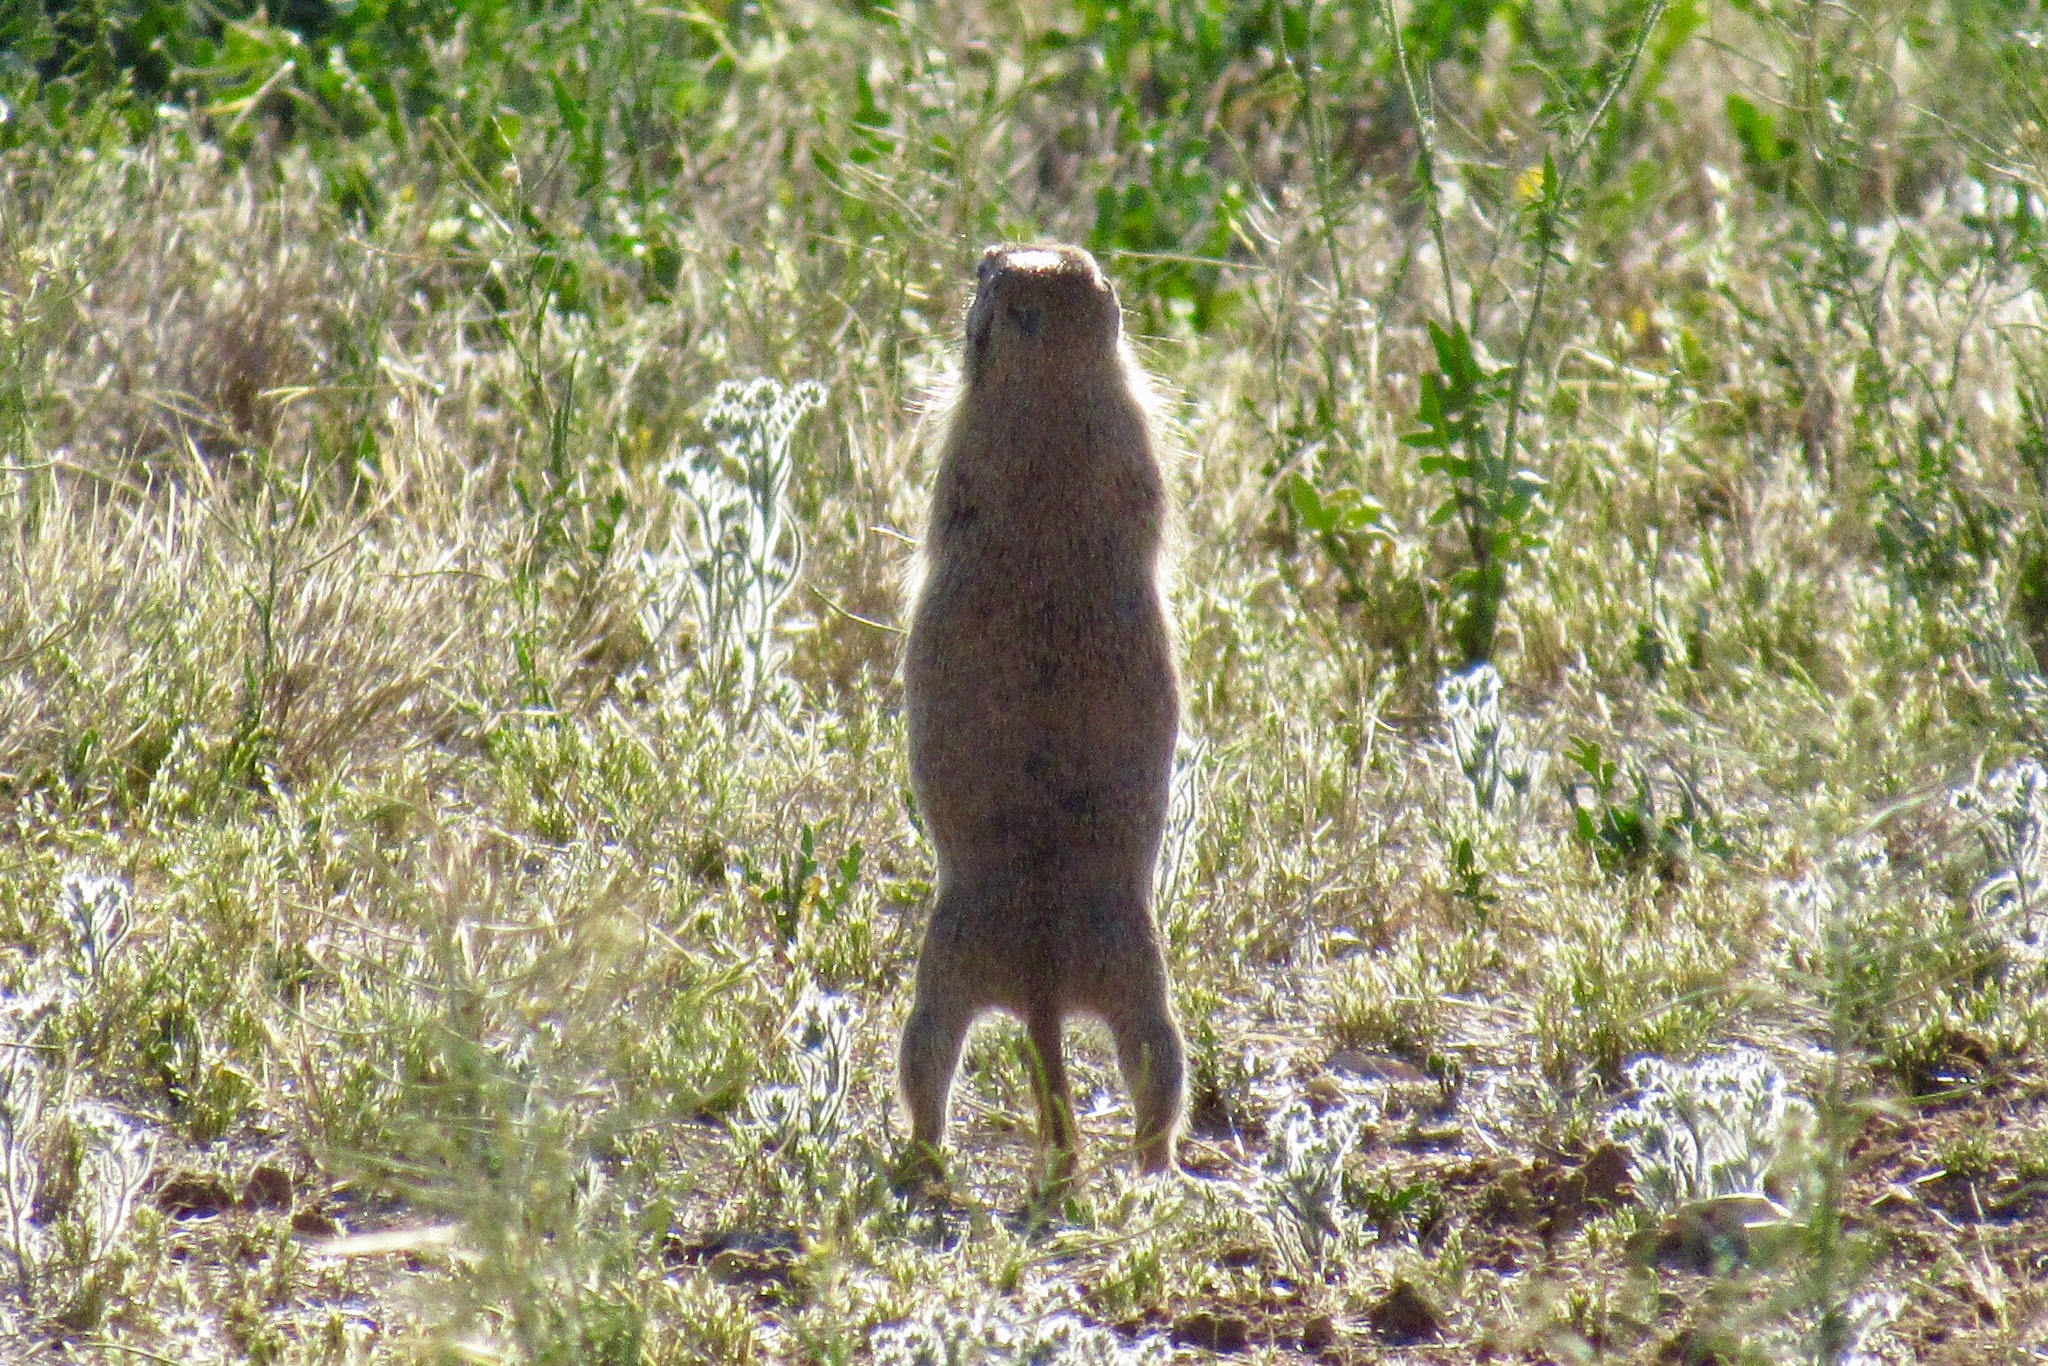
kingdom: Animalia
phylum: Chordata
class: Mammalia
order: Rodentia
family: Sciuridae
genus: Xerospermophilus
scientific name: Xerospermophilus tereticaudus
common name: Round-tailed ground squirrel
